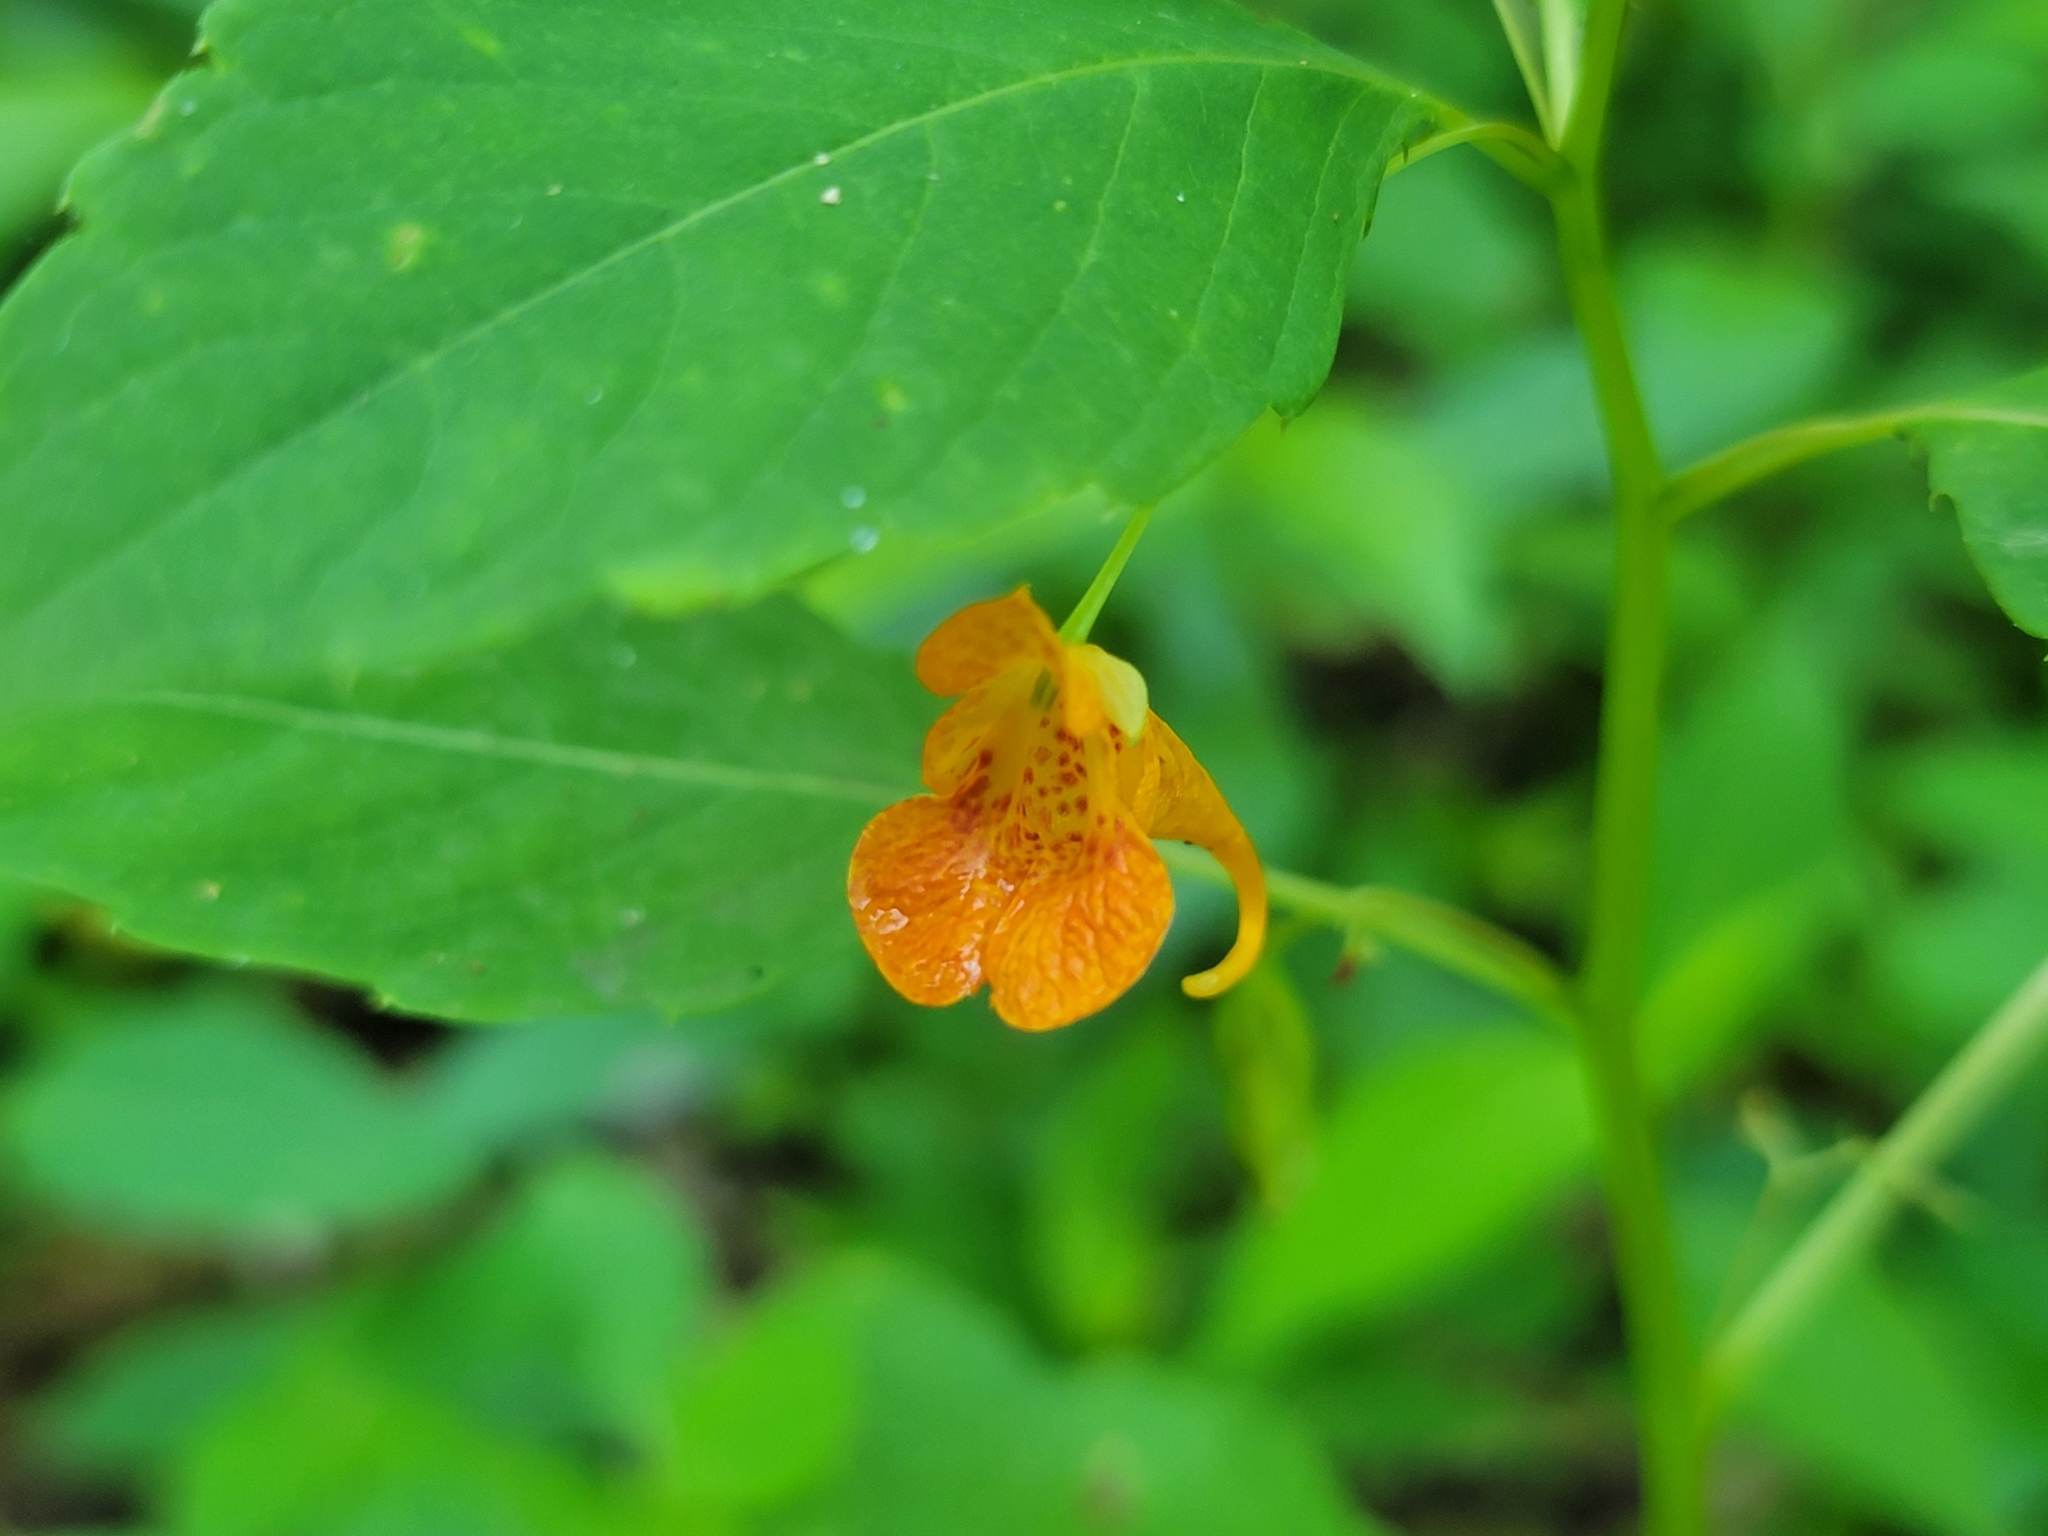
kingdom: Plantae
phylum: Tracheophyta
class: Magnoliopsida
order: Ericales
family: Balsaminaceae
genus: Impatiens
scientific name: Impatiens capensis
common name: Orange balsam
